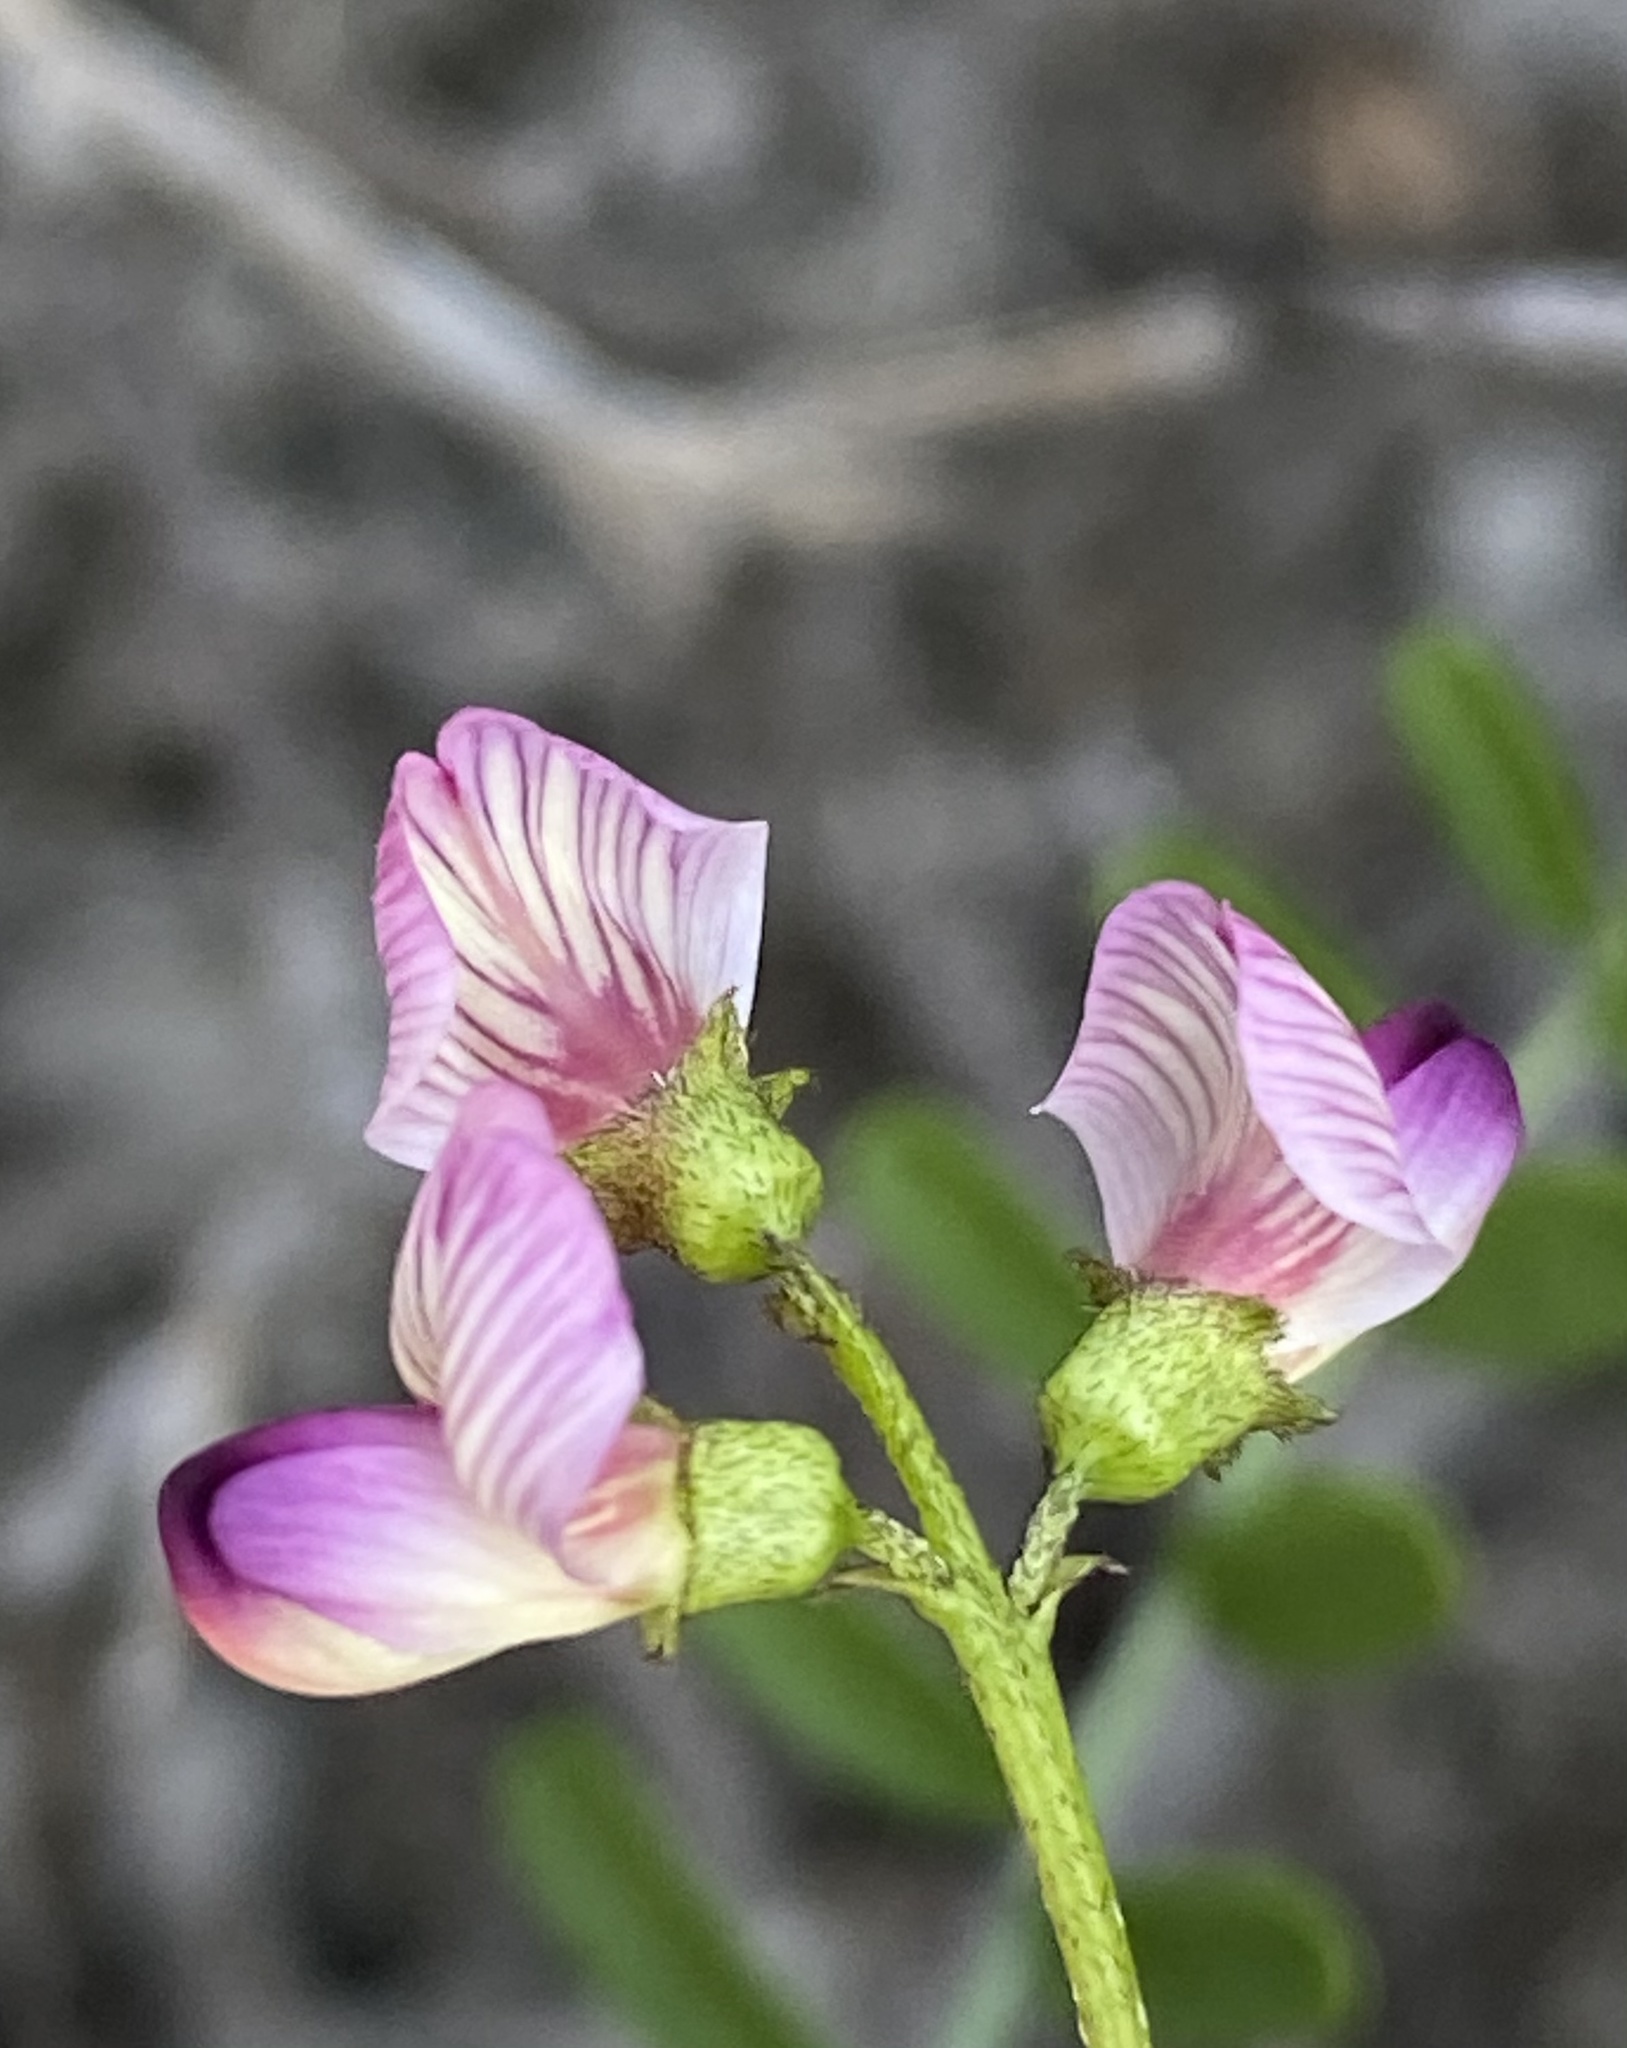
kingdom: Plantae
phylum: Tracheophyta
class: Magnoliopsida
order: Fabales
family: Fabaceae
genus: Lessertia
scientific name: Lessertia annularis
